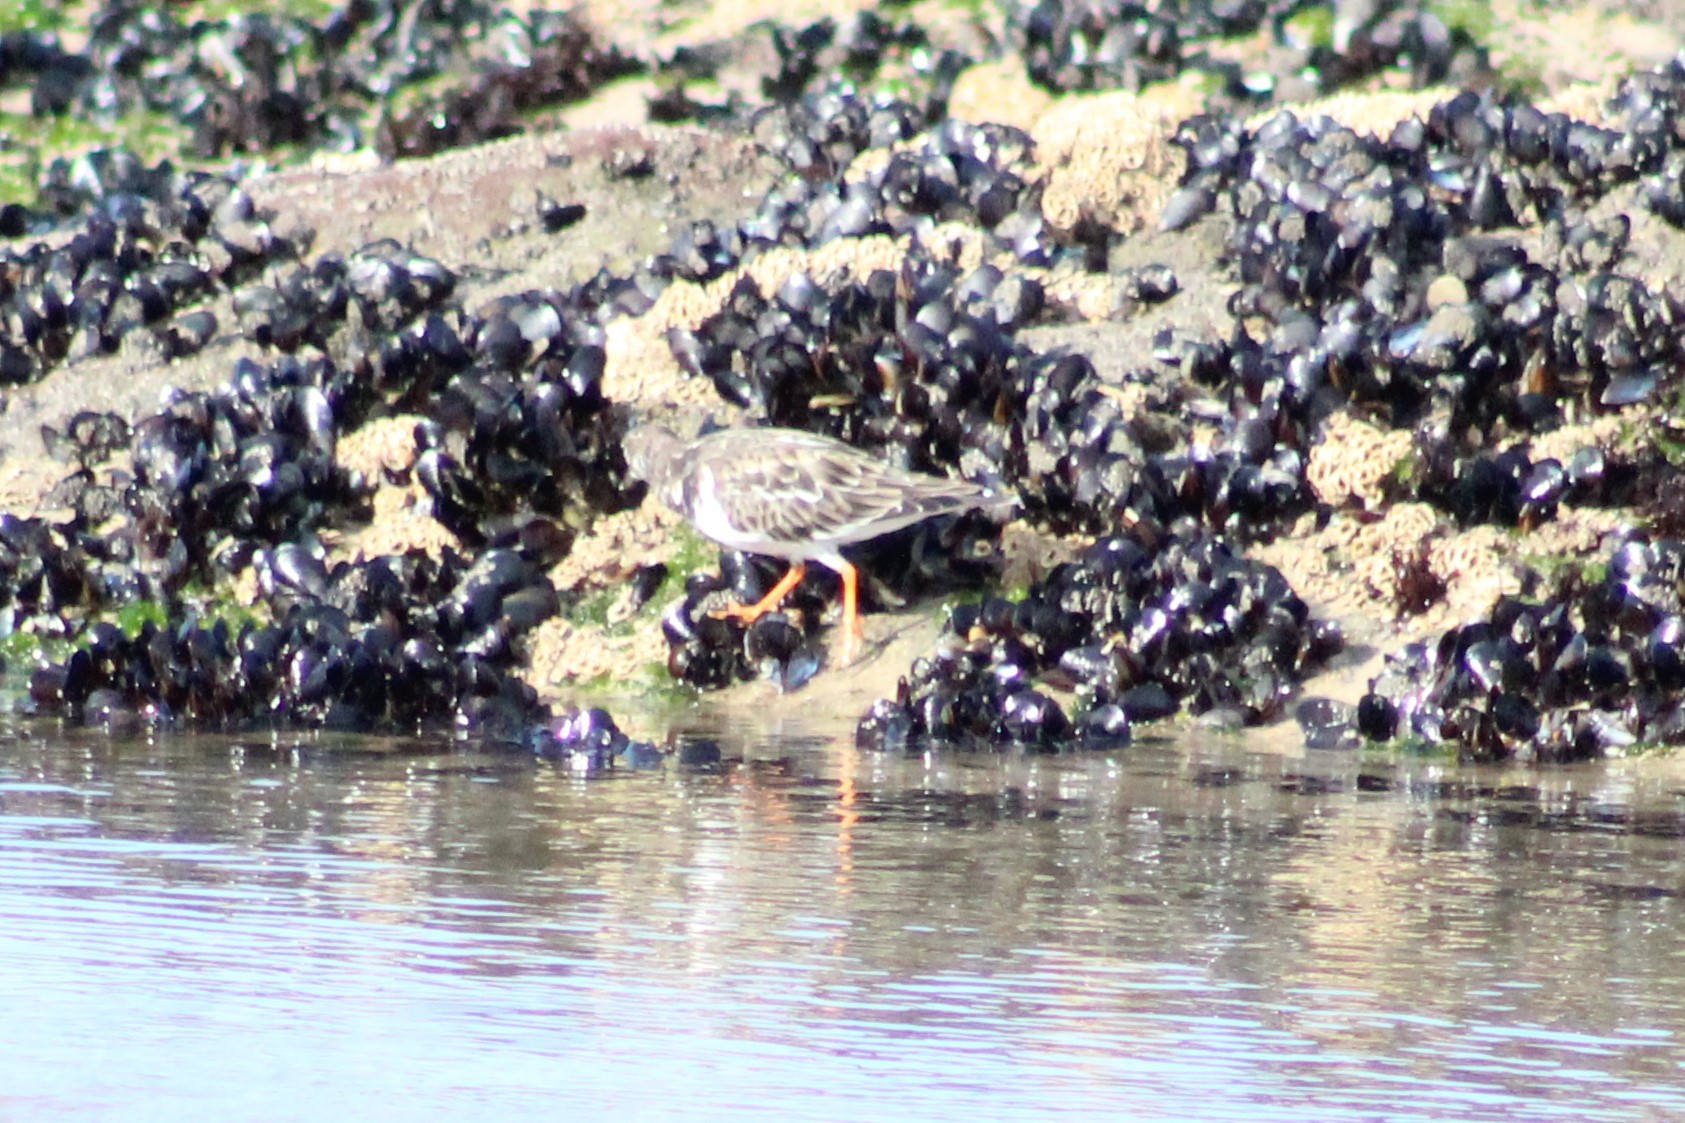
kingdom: Animalia
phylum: Chordata
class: Aves
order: Charadriiformes
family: Scolopacidae
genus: Arenaria
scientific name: Arenaria interpres
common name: Ruddy turnstone
